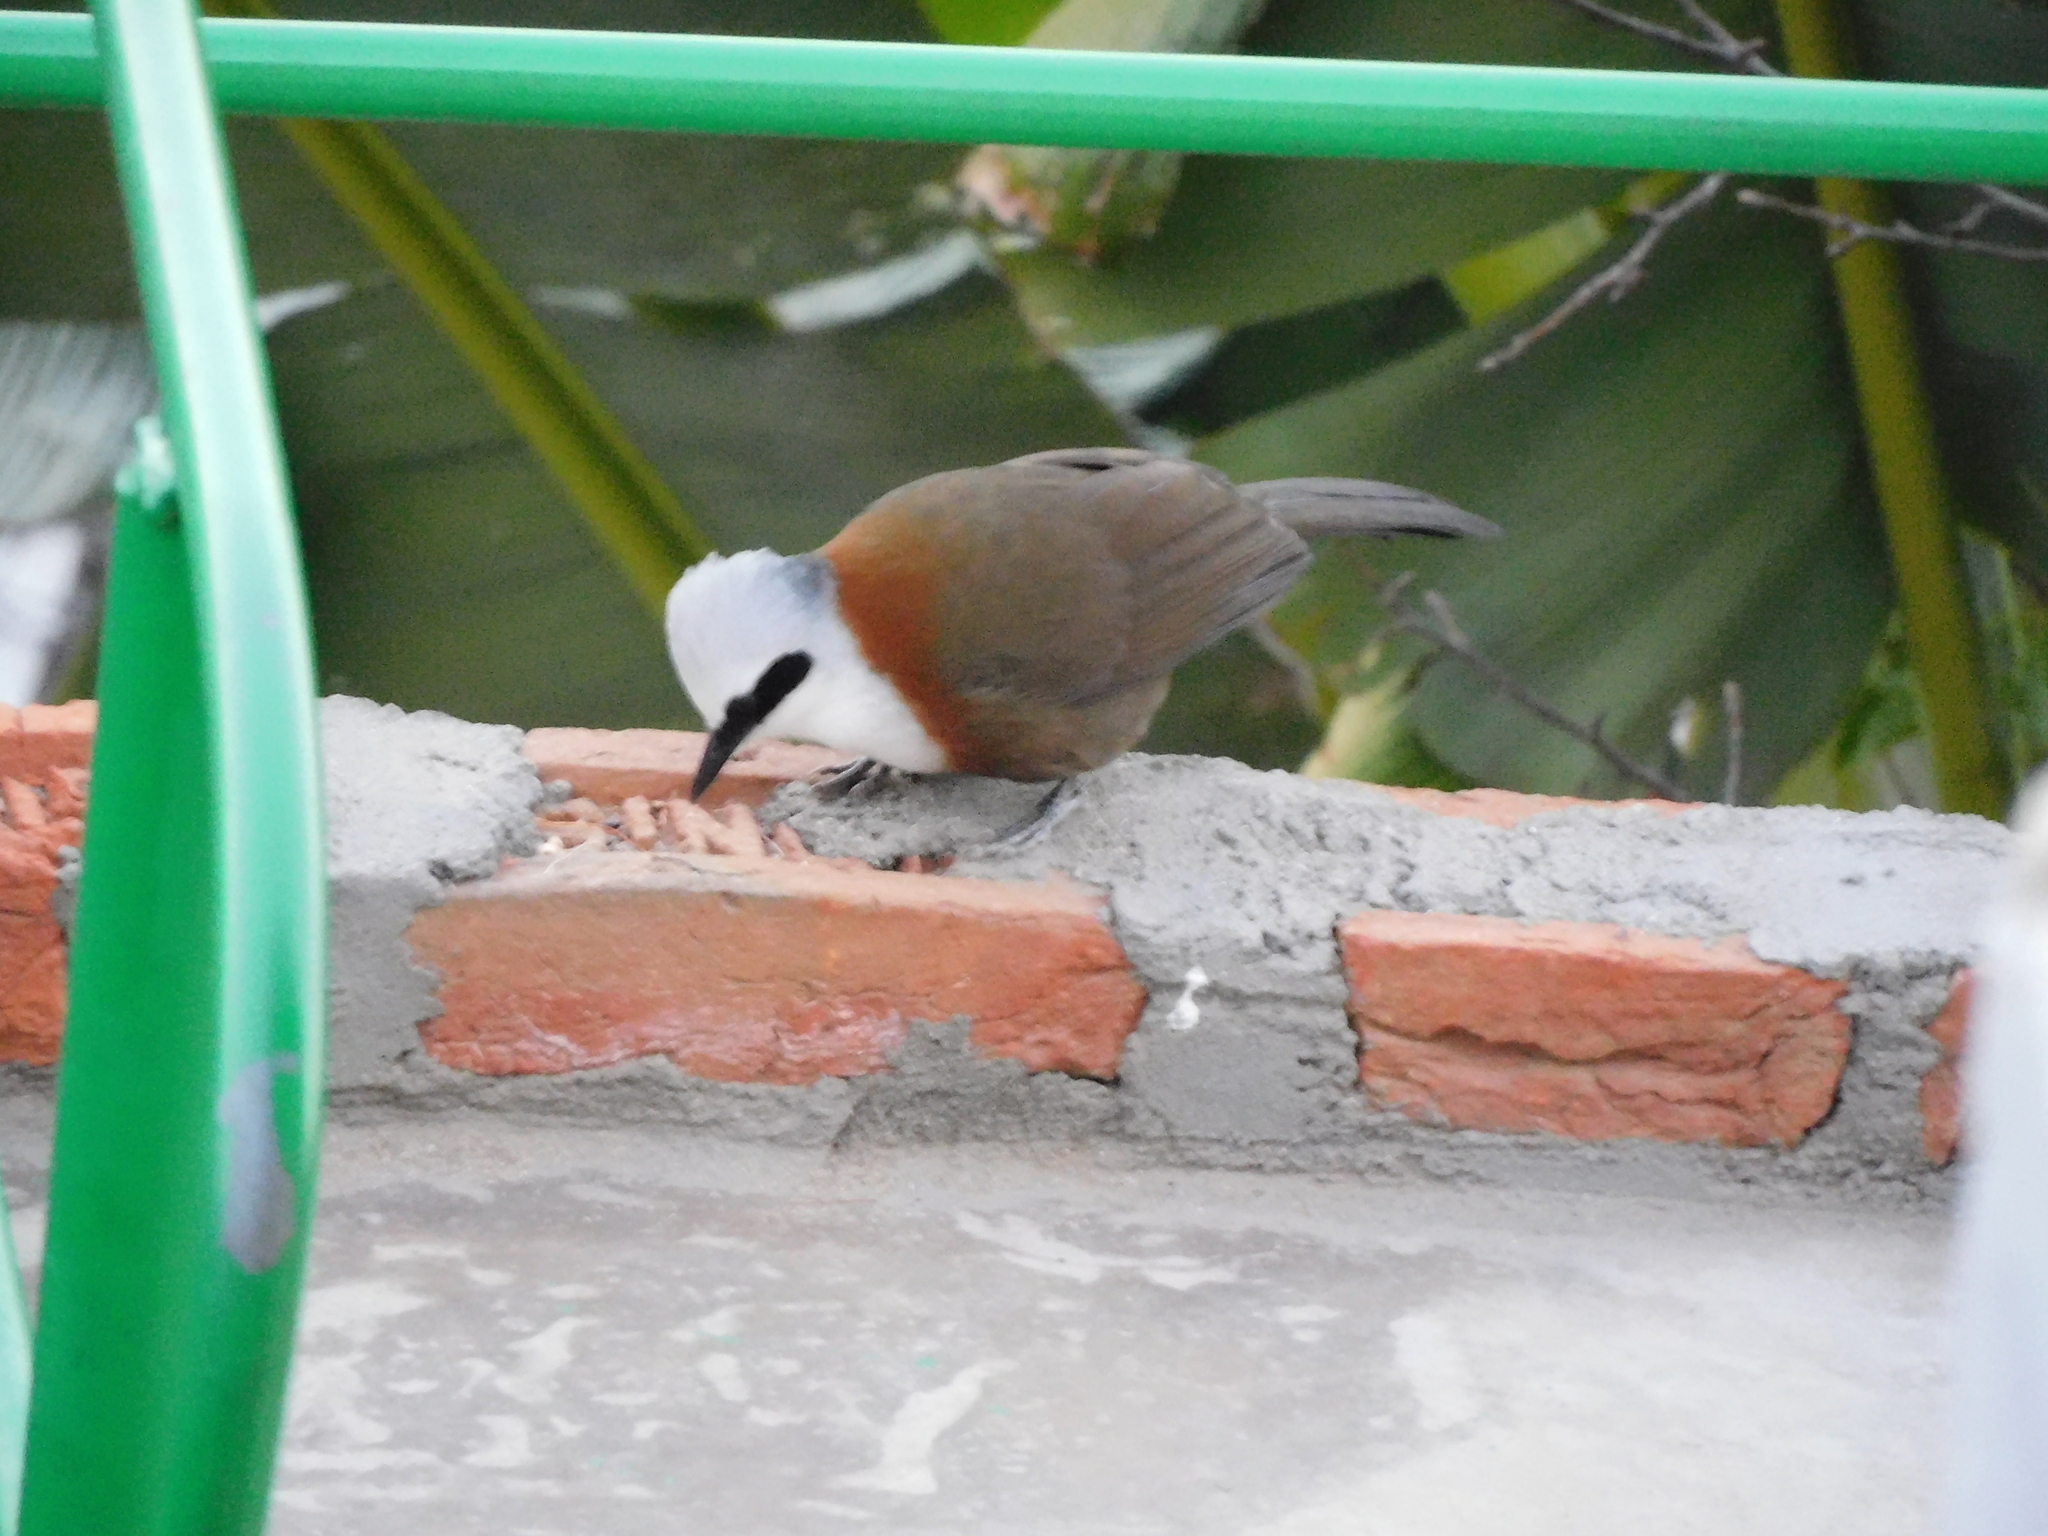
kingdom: Animalia
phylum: Chordata
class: Aves
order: Passeriformes
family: Leiothrichidae
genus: Garrulax
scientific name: Garrulax leucolophus
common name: White-crested laughingthrush
